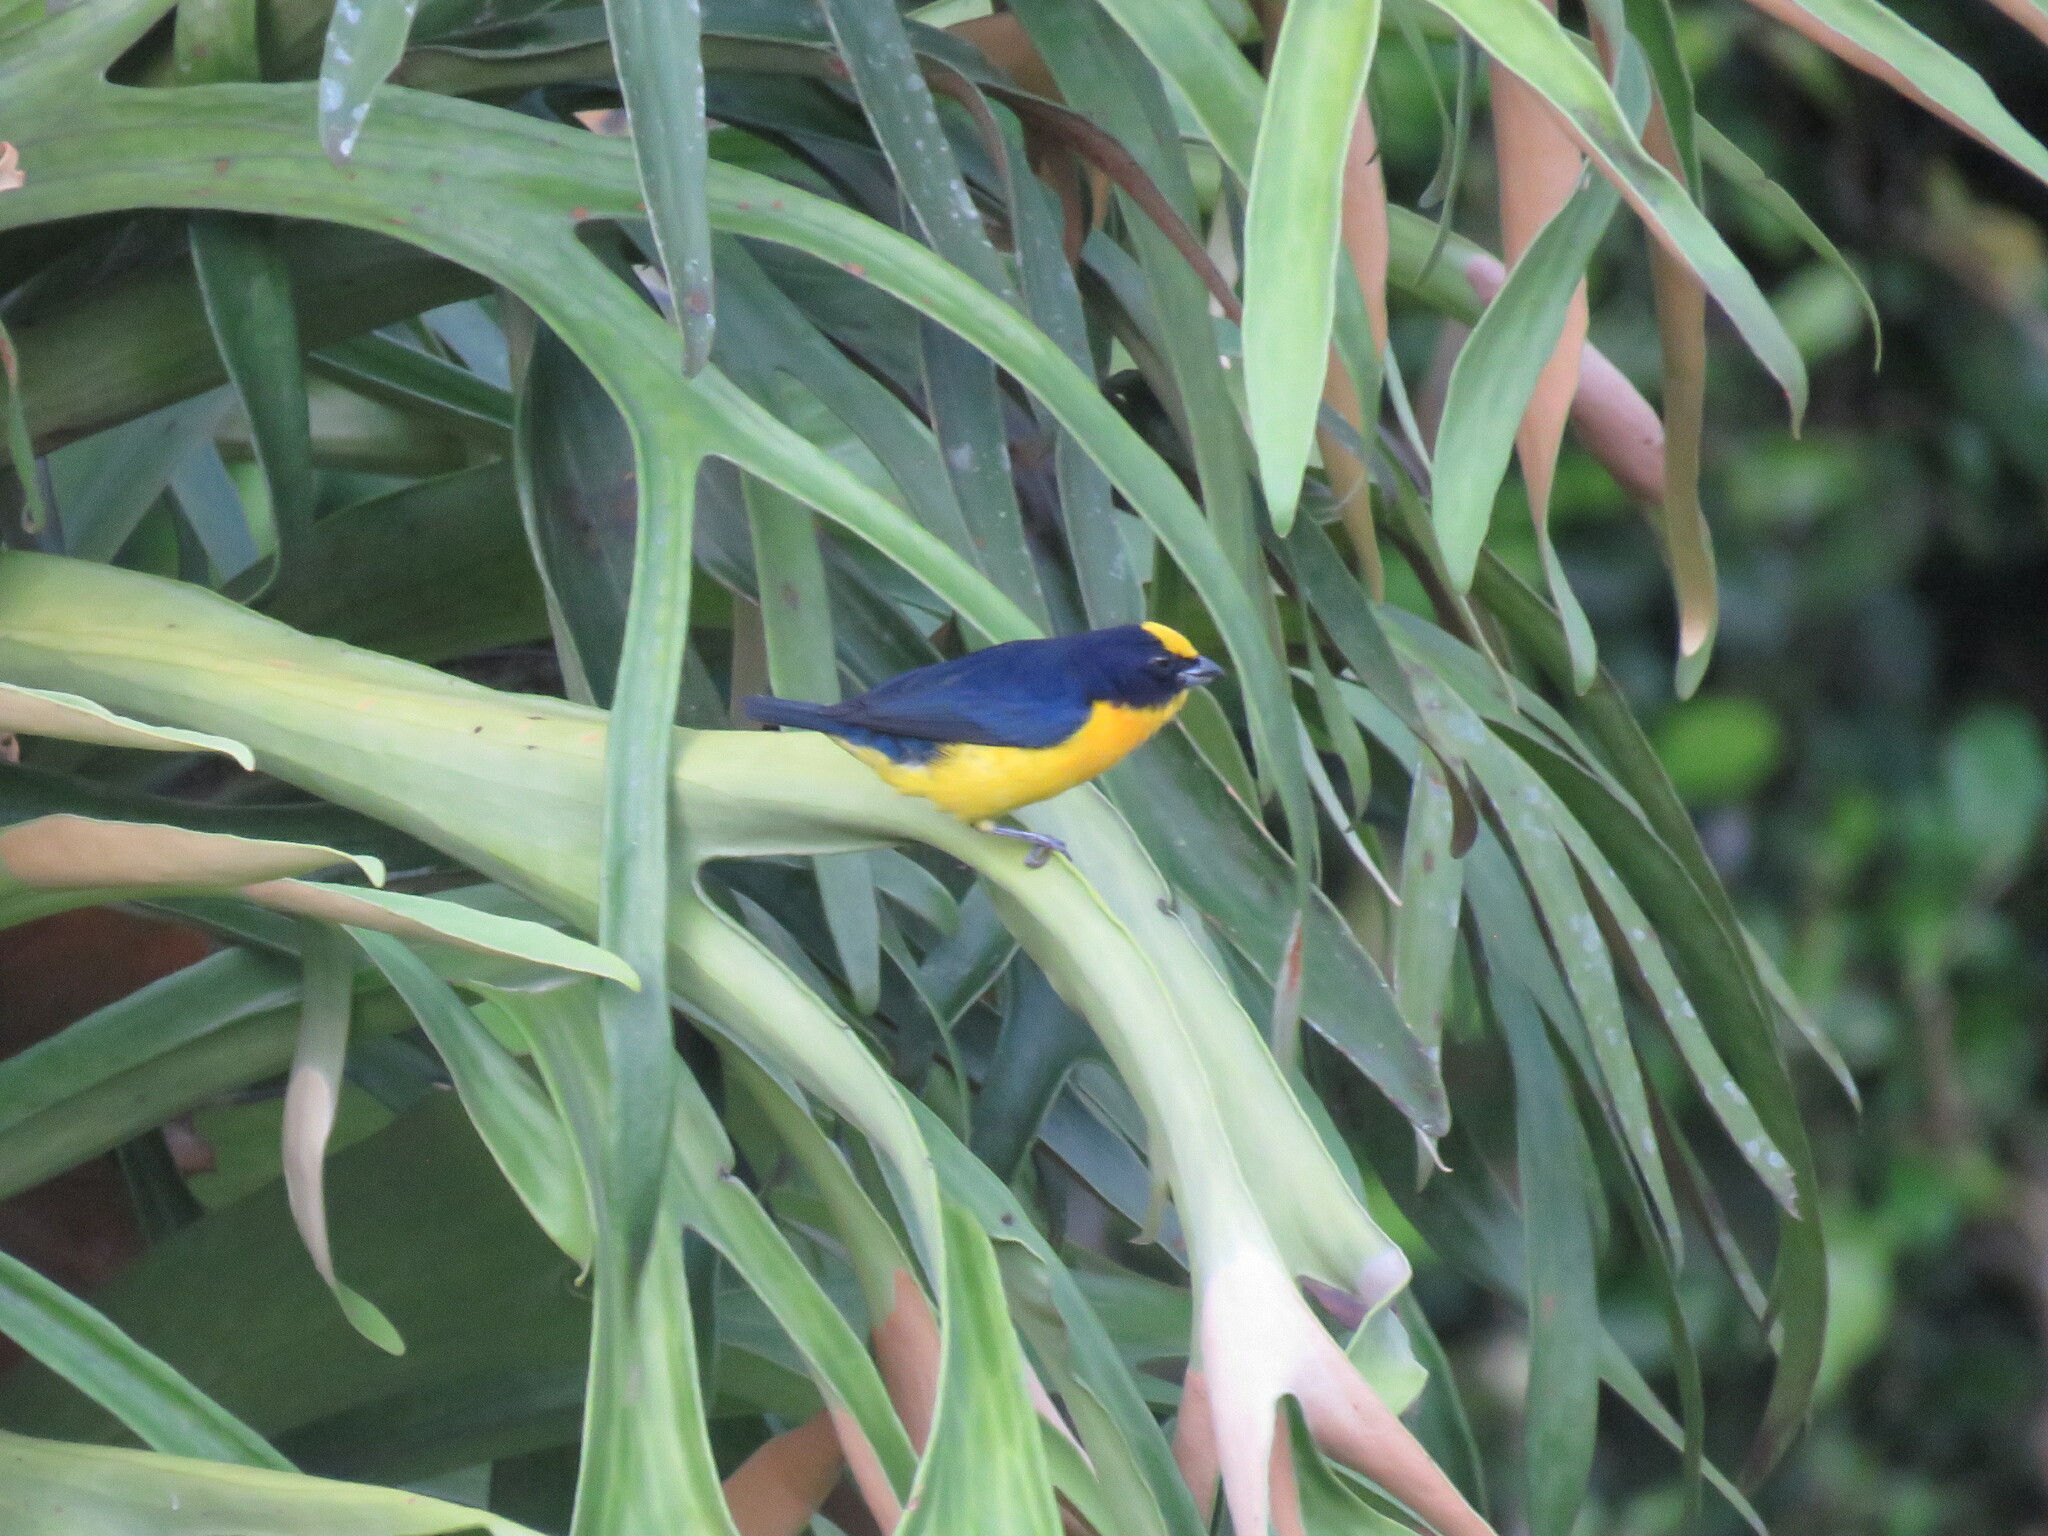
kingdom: Animalia
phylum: Chordata
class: Aves
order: Passeriformes
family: Fringillidae
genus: Euphonia
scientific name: Euphonia laniirostris
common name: Thick-billed euphonia
